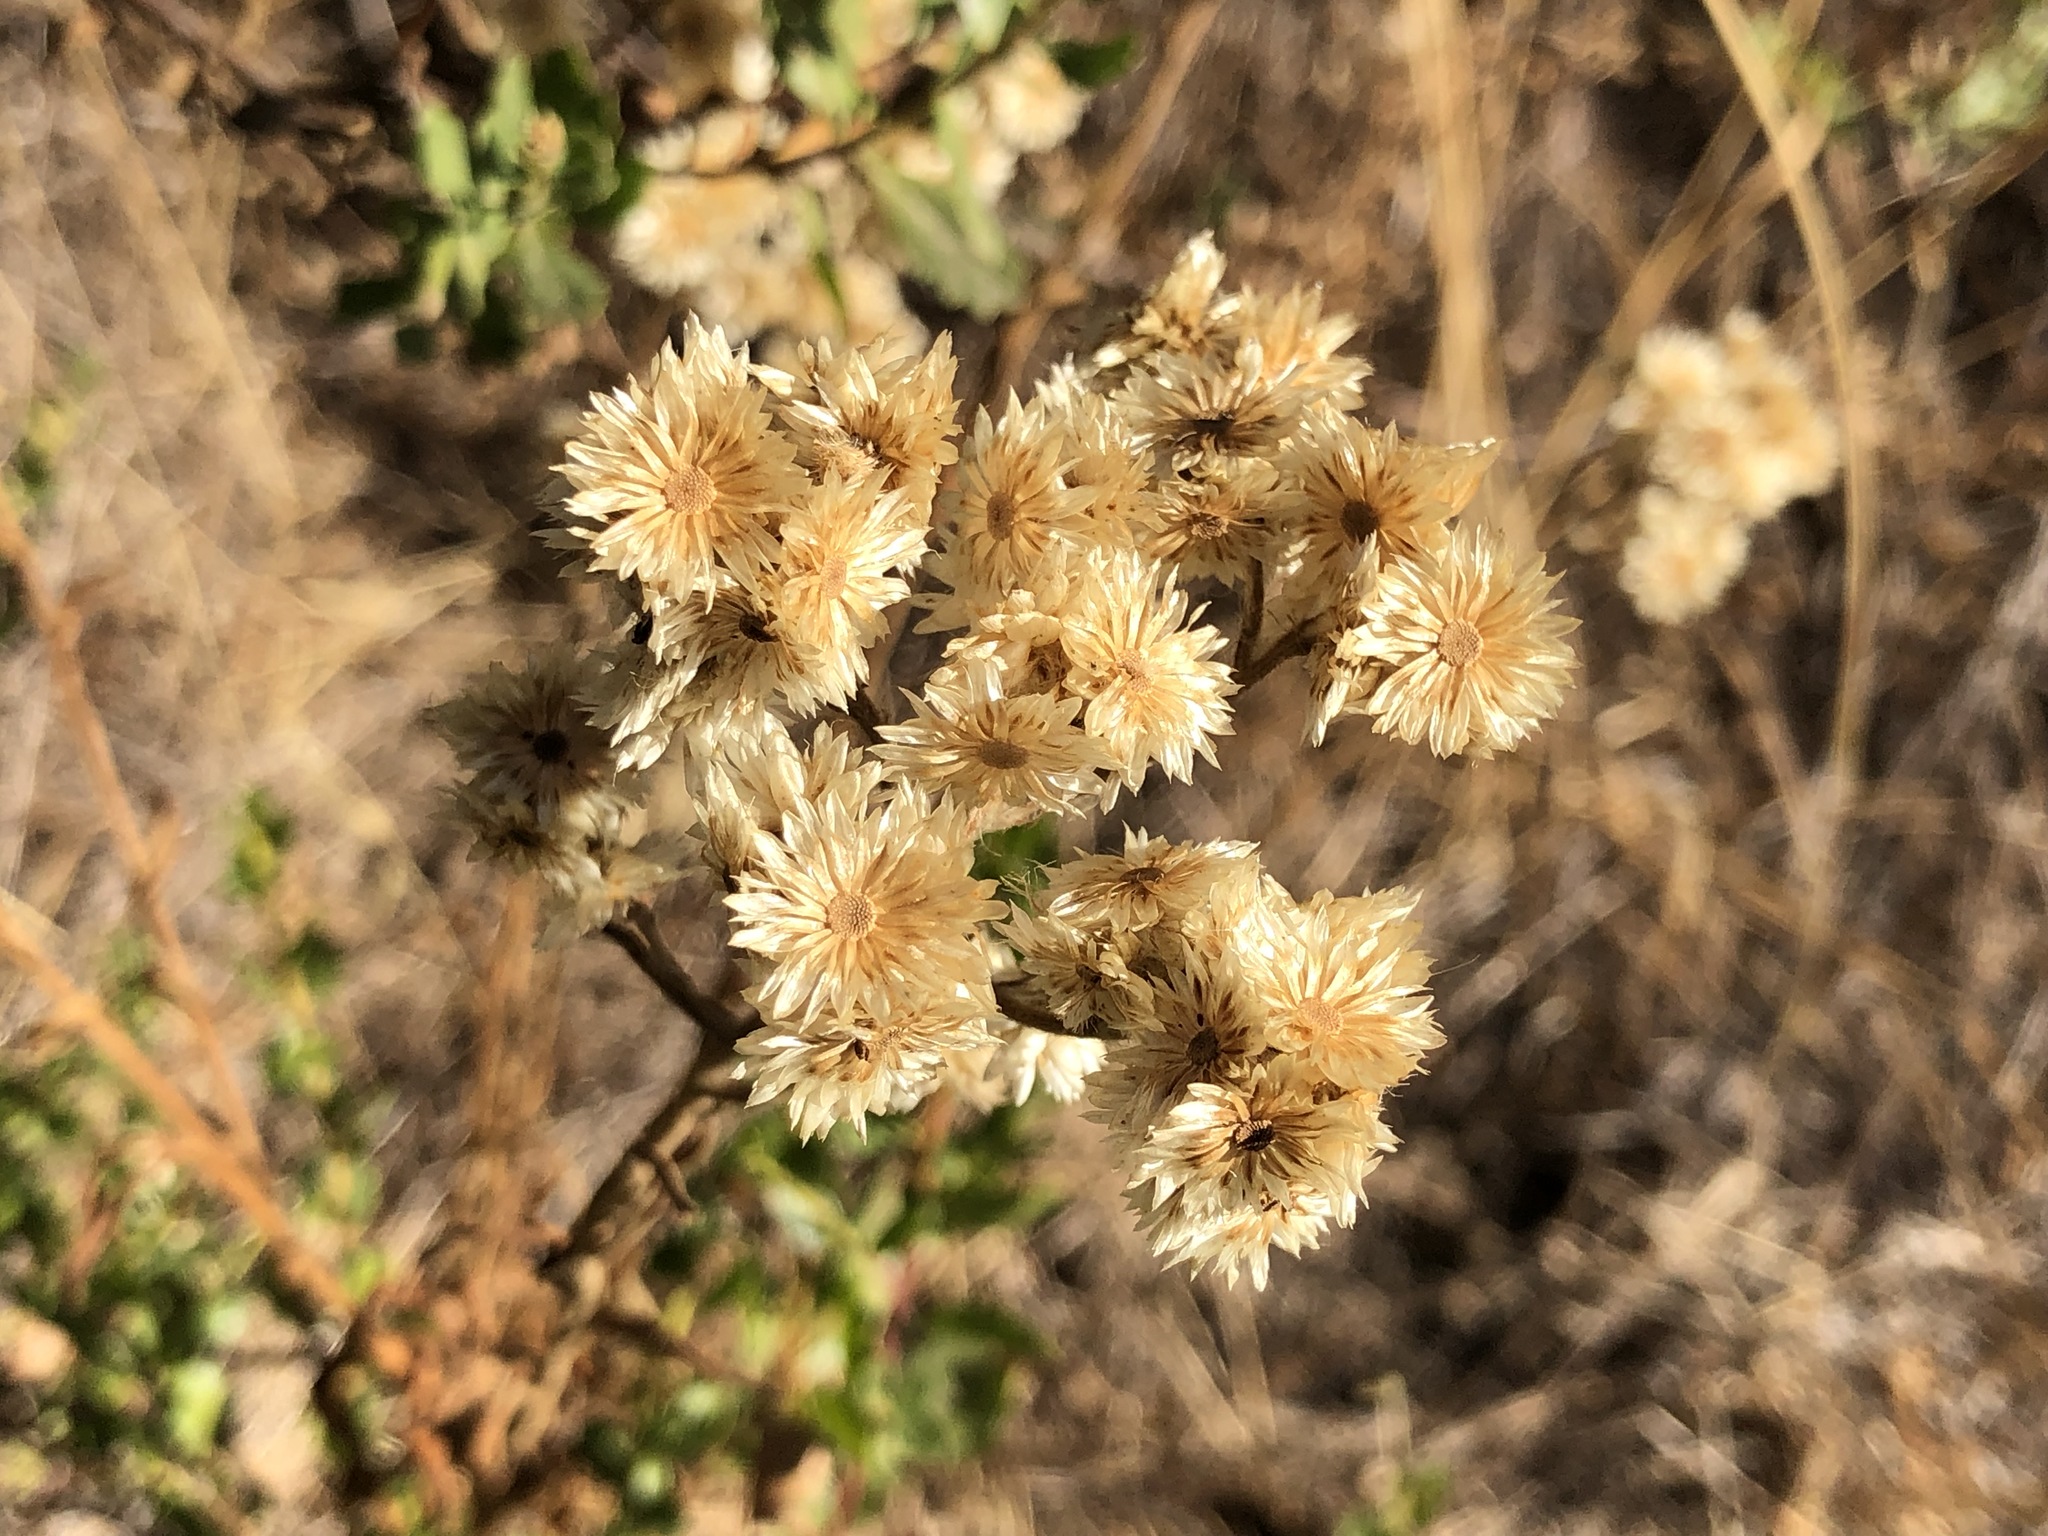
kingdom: Plantae
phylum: Tracheophyta
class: Magnoliopsida
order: Asterales
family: Asteraceae
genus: Pseudognaphalium
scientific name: Pseudognaphalium californicum
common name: California rabbit-tobacco
